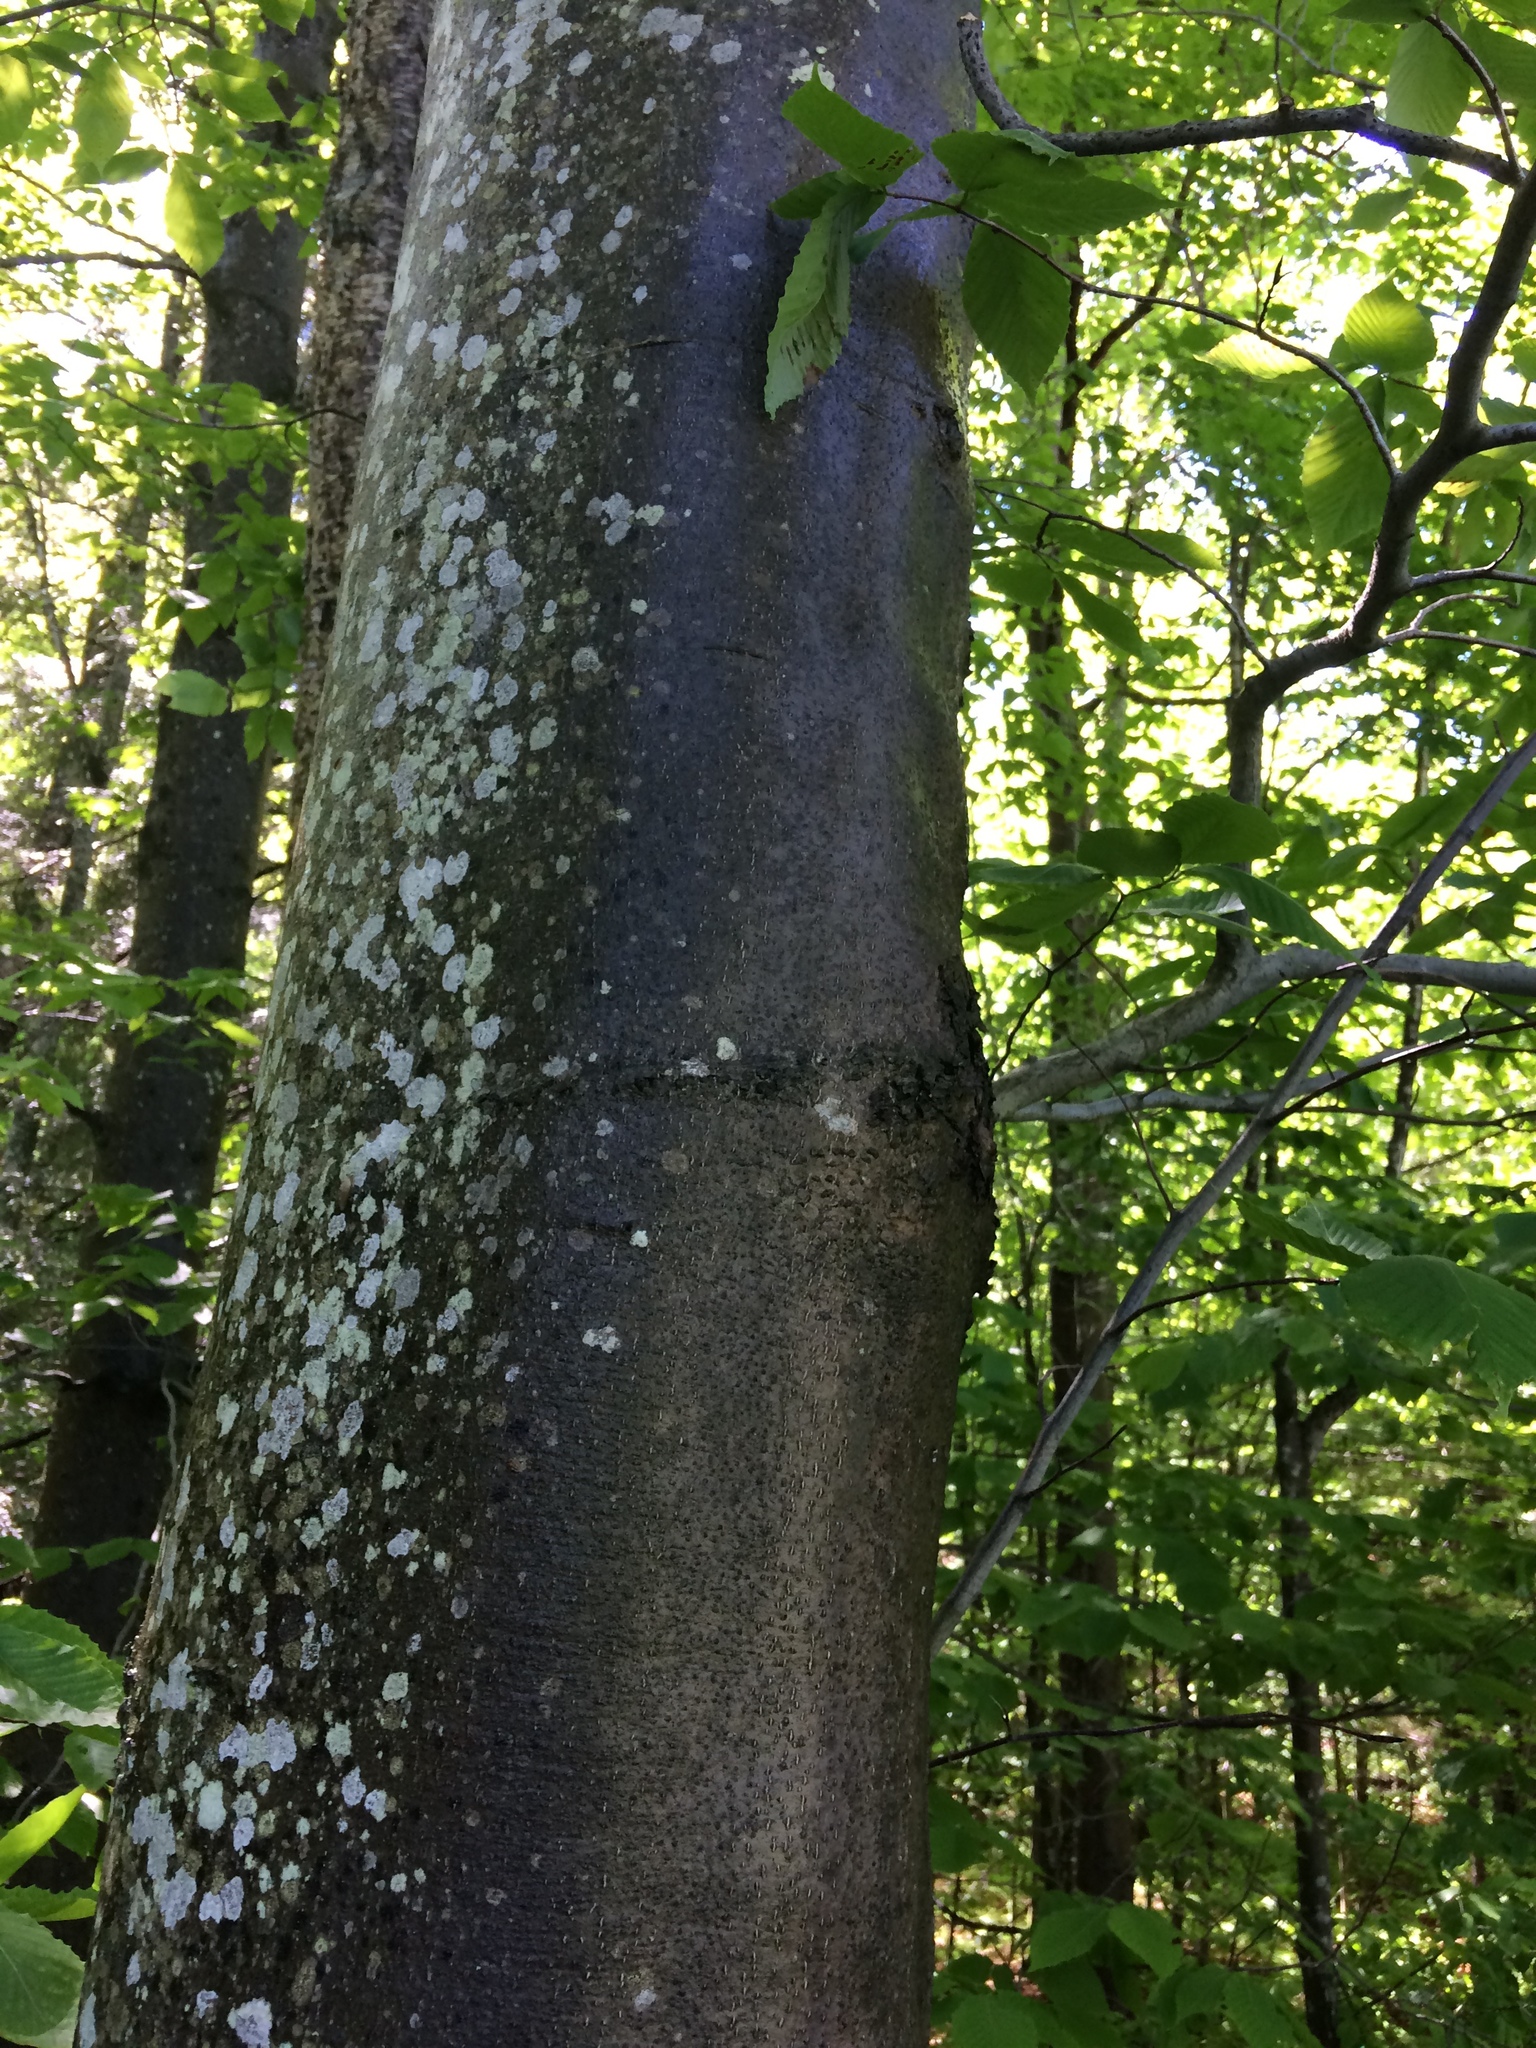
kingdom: Plantae
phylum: Tracheophyta
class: Magnoliopsida
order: Fagales
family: Fagaceae
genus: Fagus
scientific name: Fagus grandifolia
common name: American beech
